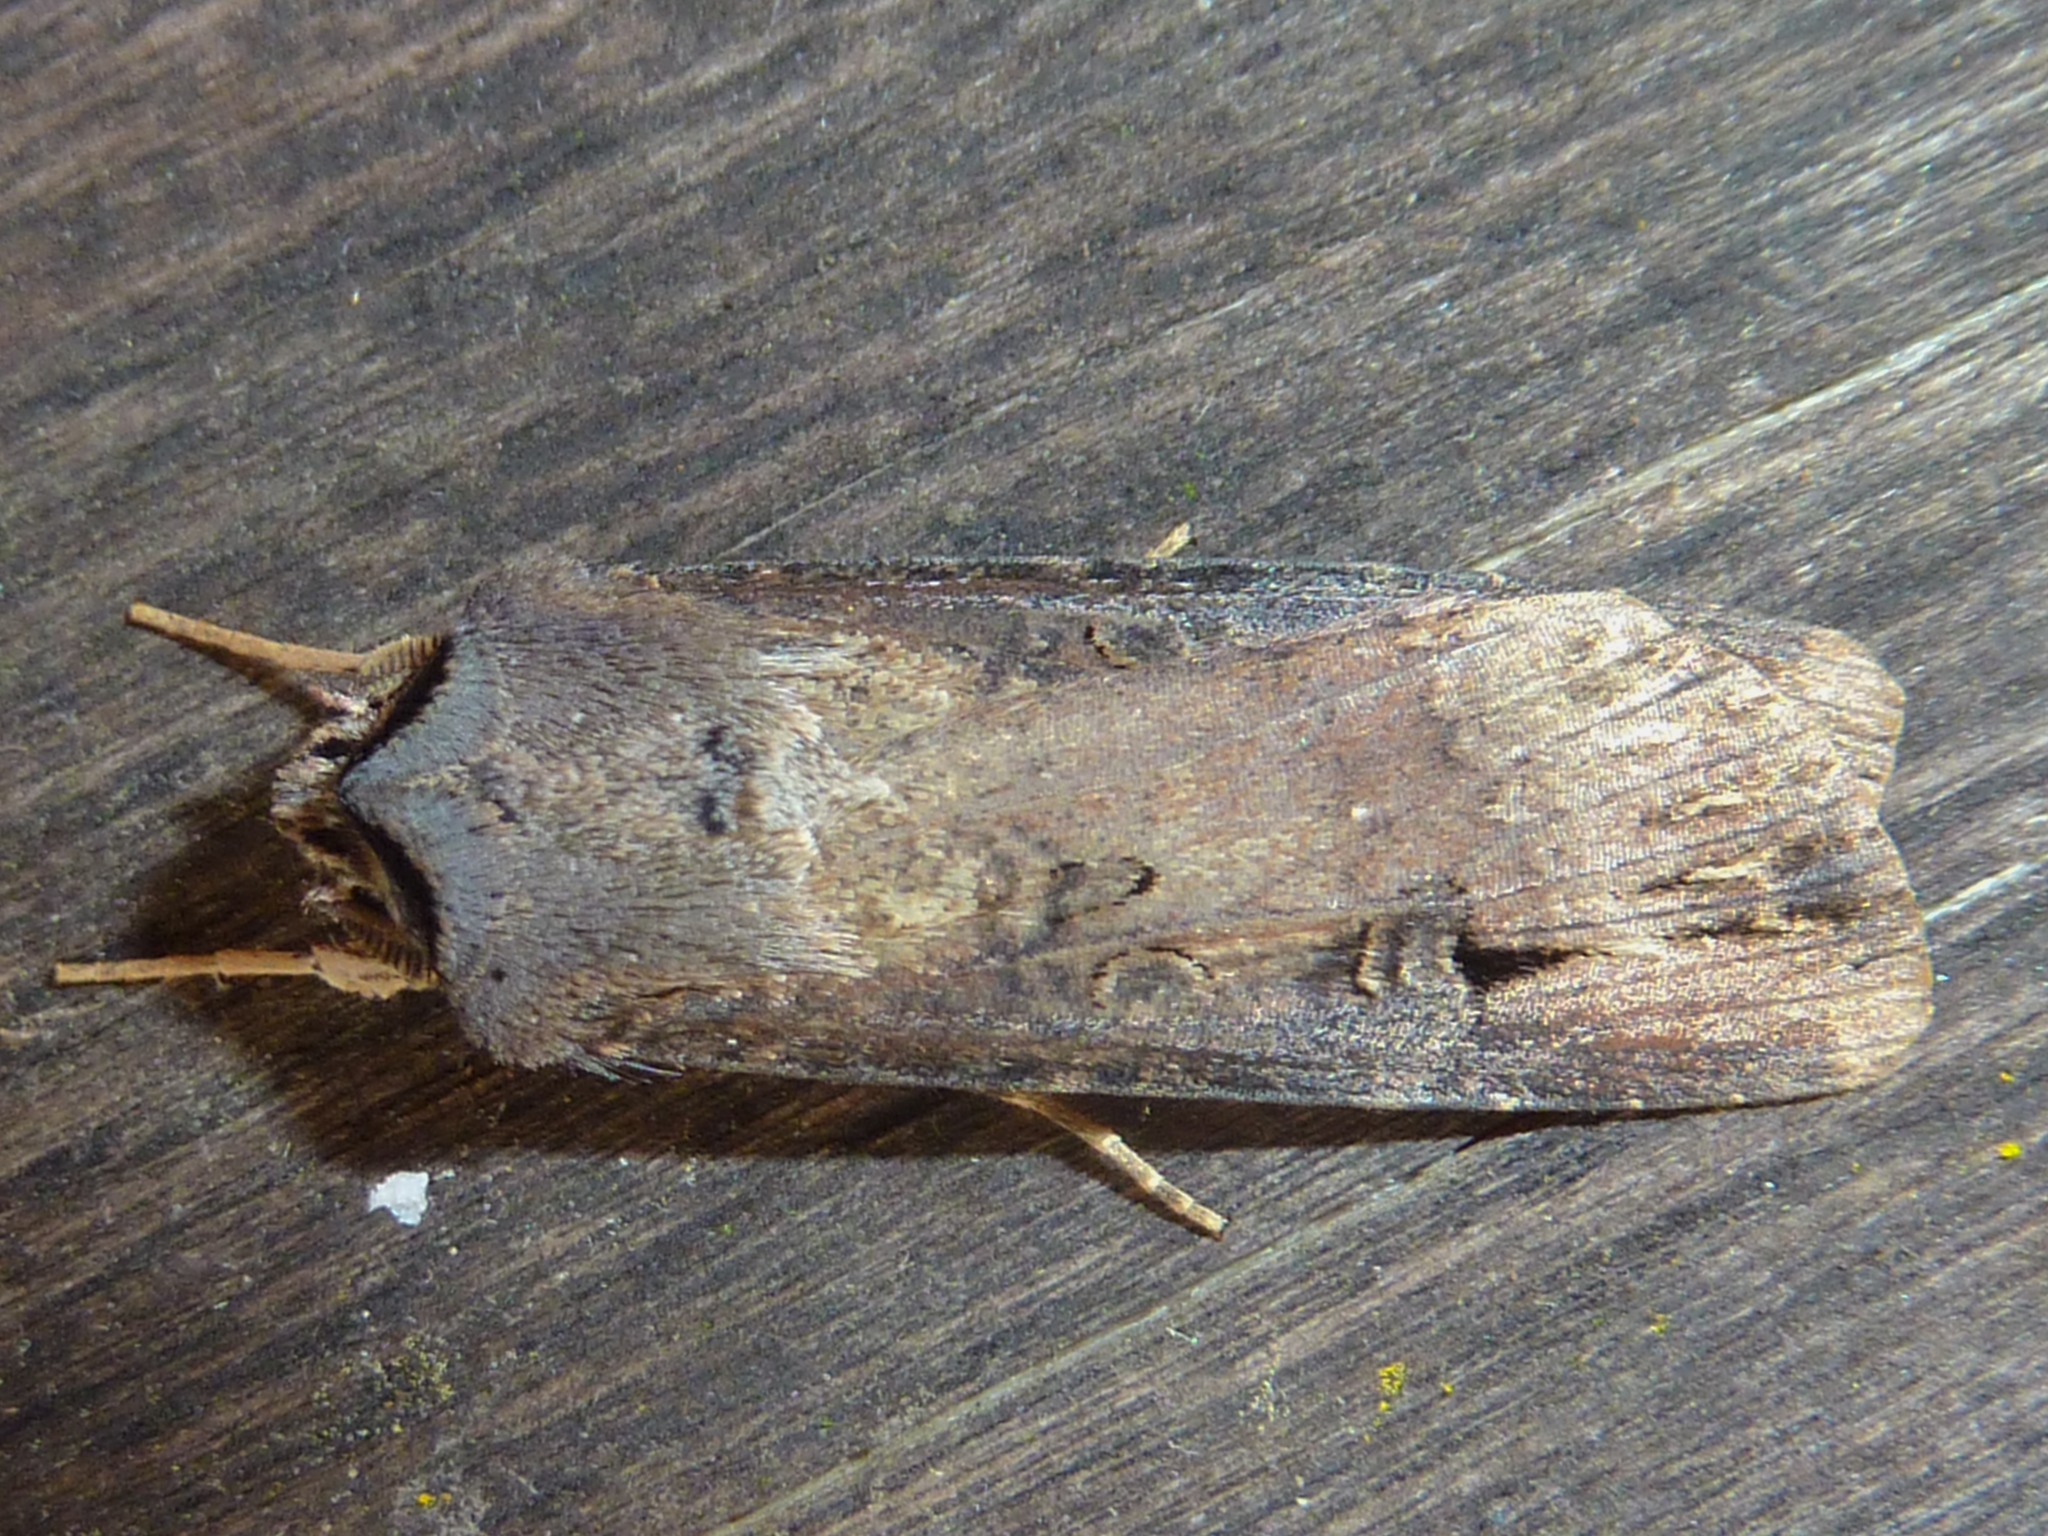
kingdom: Animalia
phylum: Arthropoda
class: Insecta
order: Lepidoptera
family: Noctuidae
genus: Agrotis
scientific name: Agrotis ipsilon
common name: Dark sword-grass
